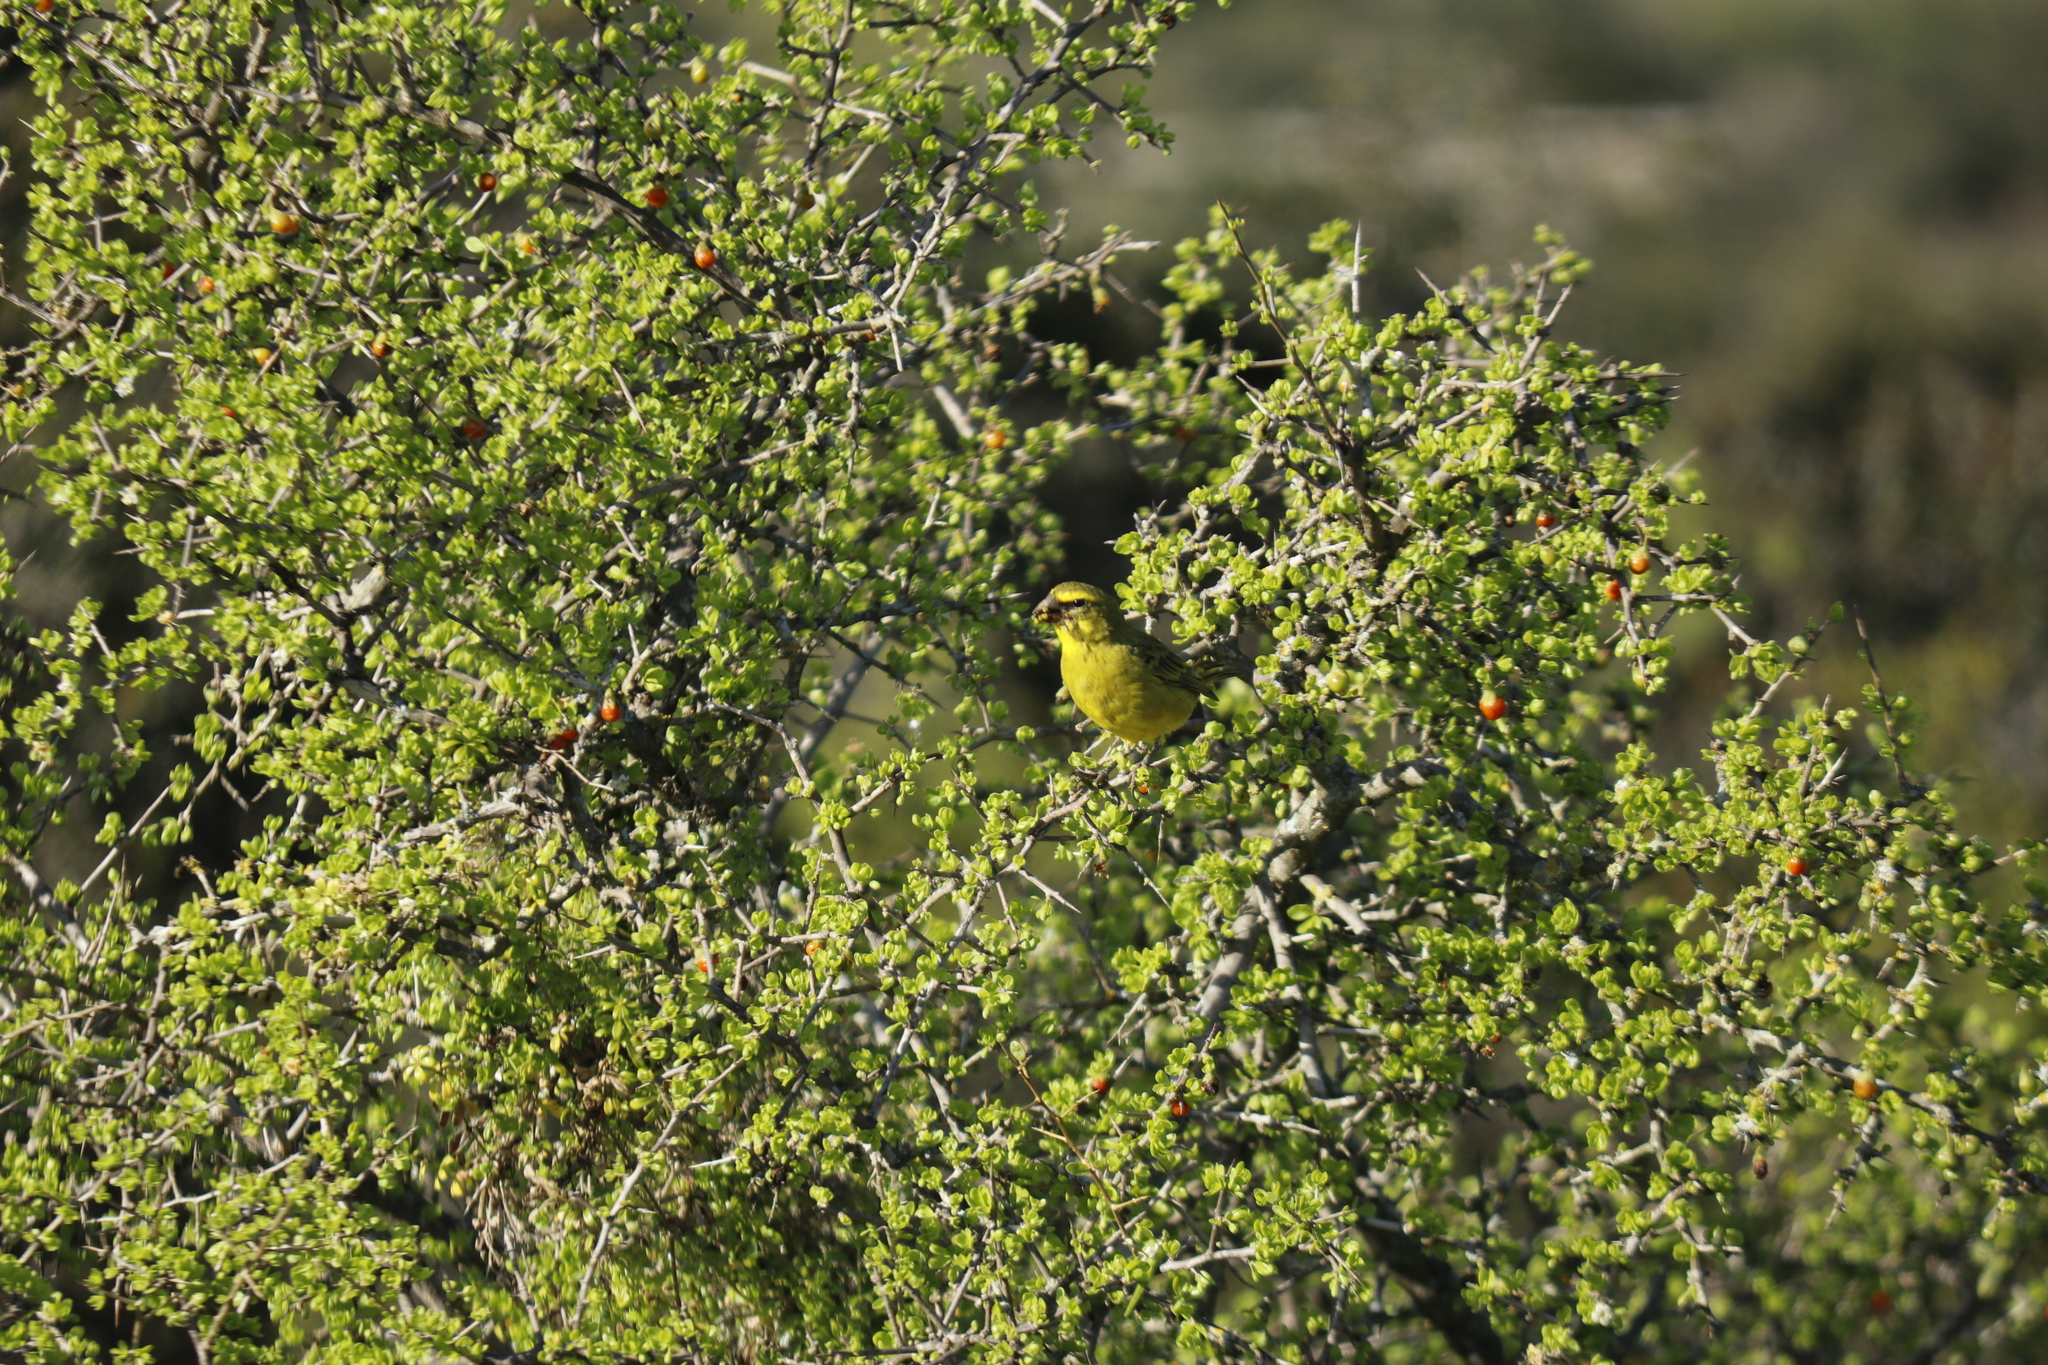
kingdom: Animalia
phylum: Chordata
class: Aves
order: Passeriformes
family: Fringillidae
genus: Crithagra
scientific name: Crithagra sulphurata
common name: Brimstone canary
